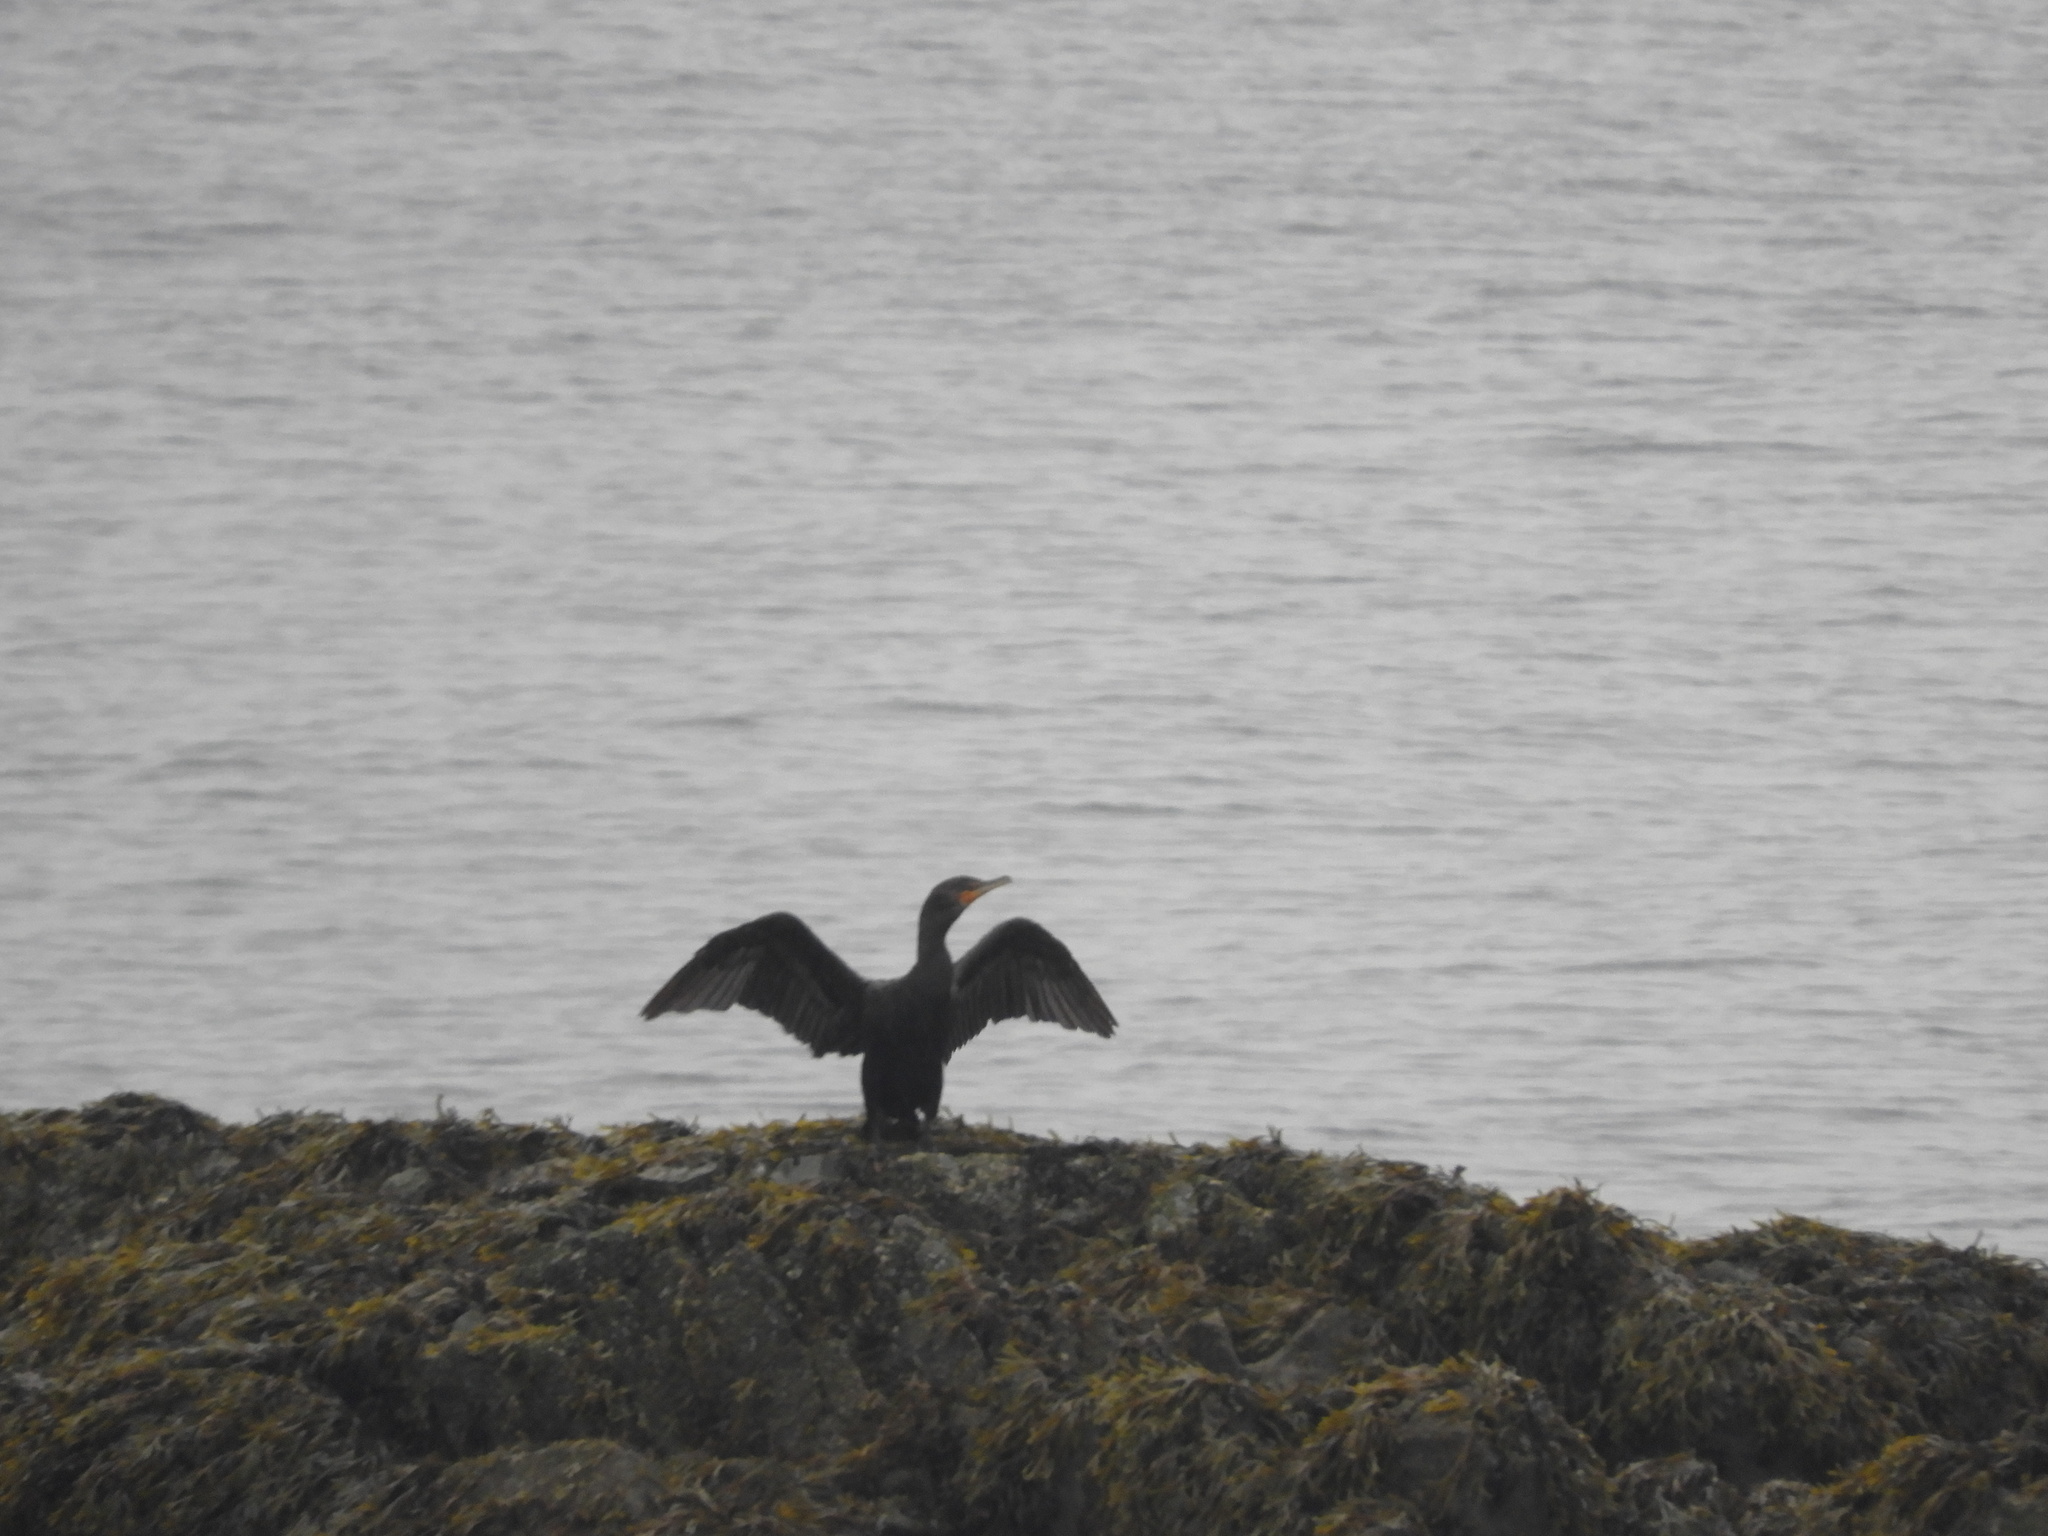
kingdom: Animalia
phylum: Chordata
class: Aves
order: Suliformes
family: Phalacrocoracidae
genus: Phalacrocorax
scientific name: Phalacrocorax auritus
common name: Double-crested cormorant
